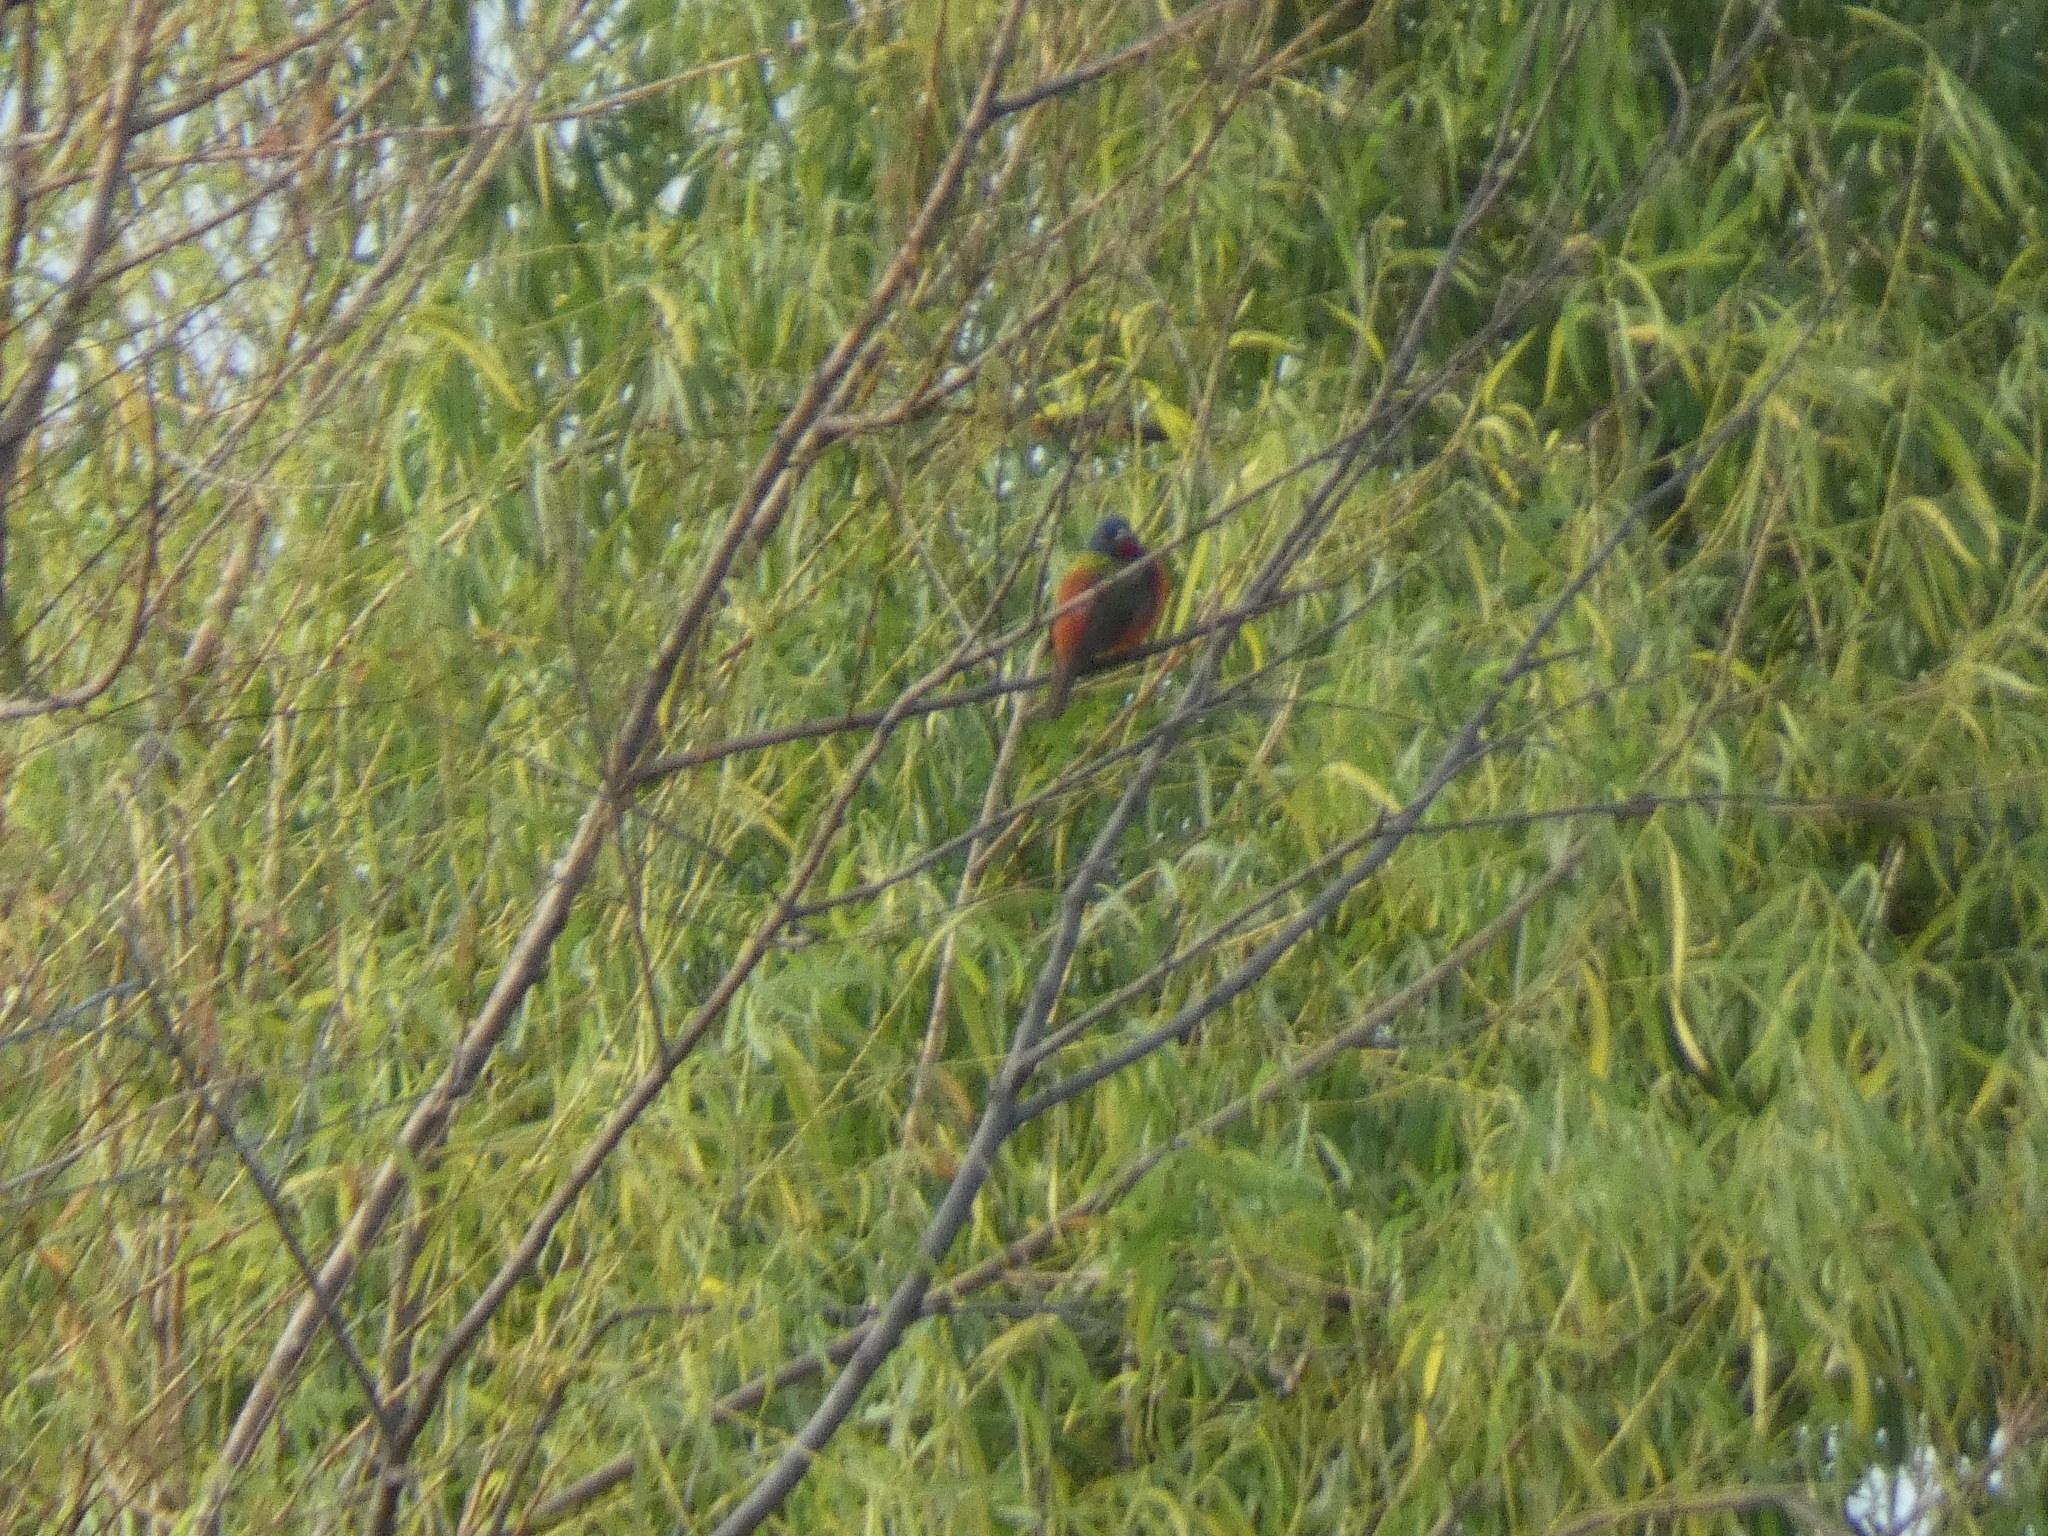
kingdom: Animalia
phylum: Chordata
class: Aves
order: Passeriformes
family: Cardinalidae
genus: Passerina
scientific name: Passerina ciris
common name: Painted bunting
